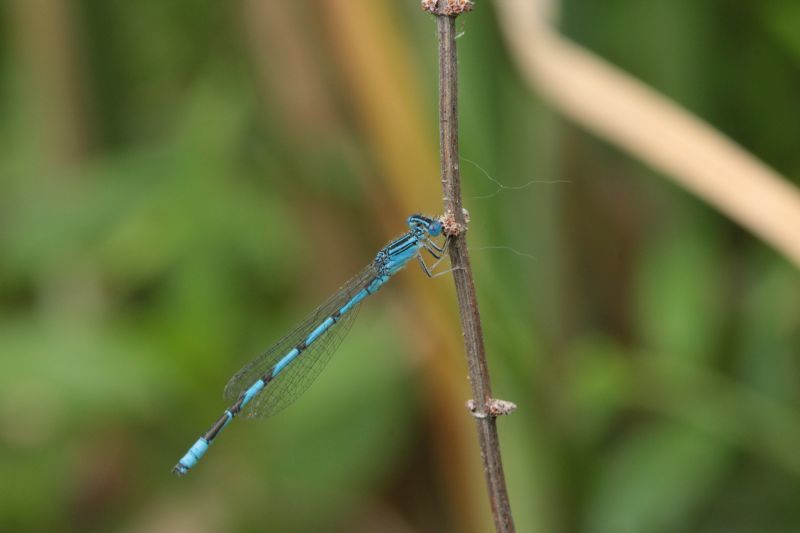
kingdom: Animalia
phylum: Arthropoda
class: Insecta
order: Odonata
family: Coenagrionidae
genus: Enallagma
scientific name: Enallagma basidens
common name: Double-striped bluet
